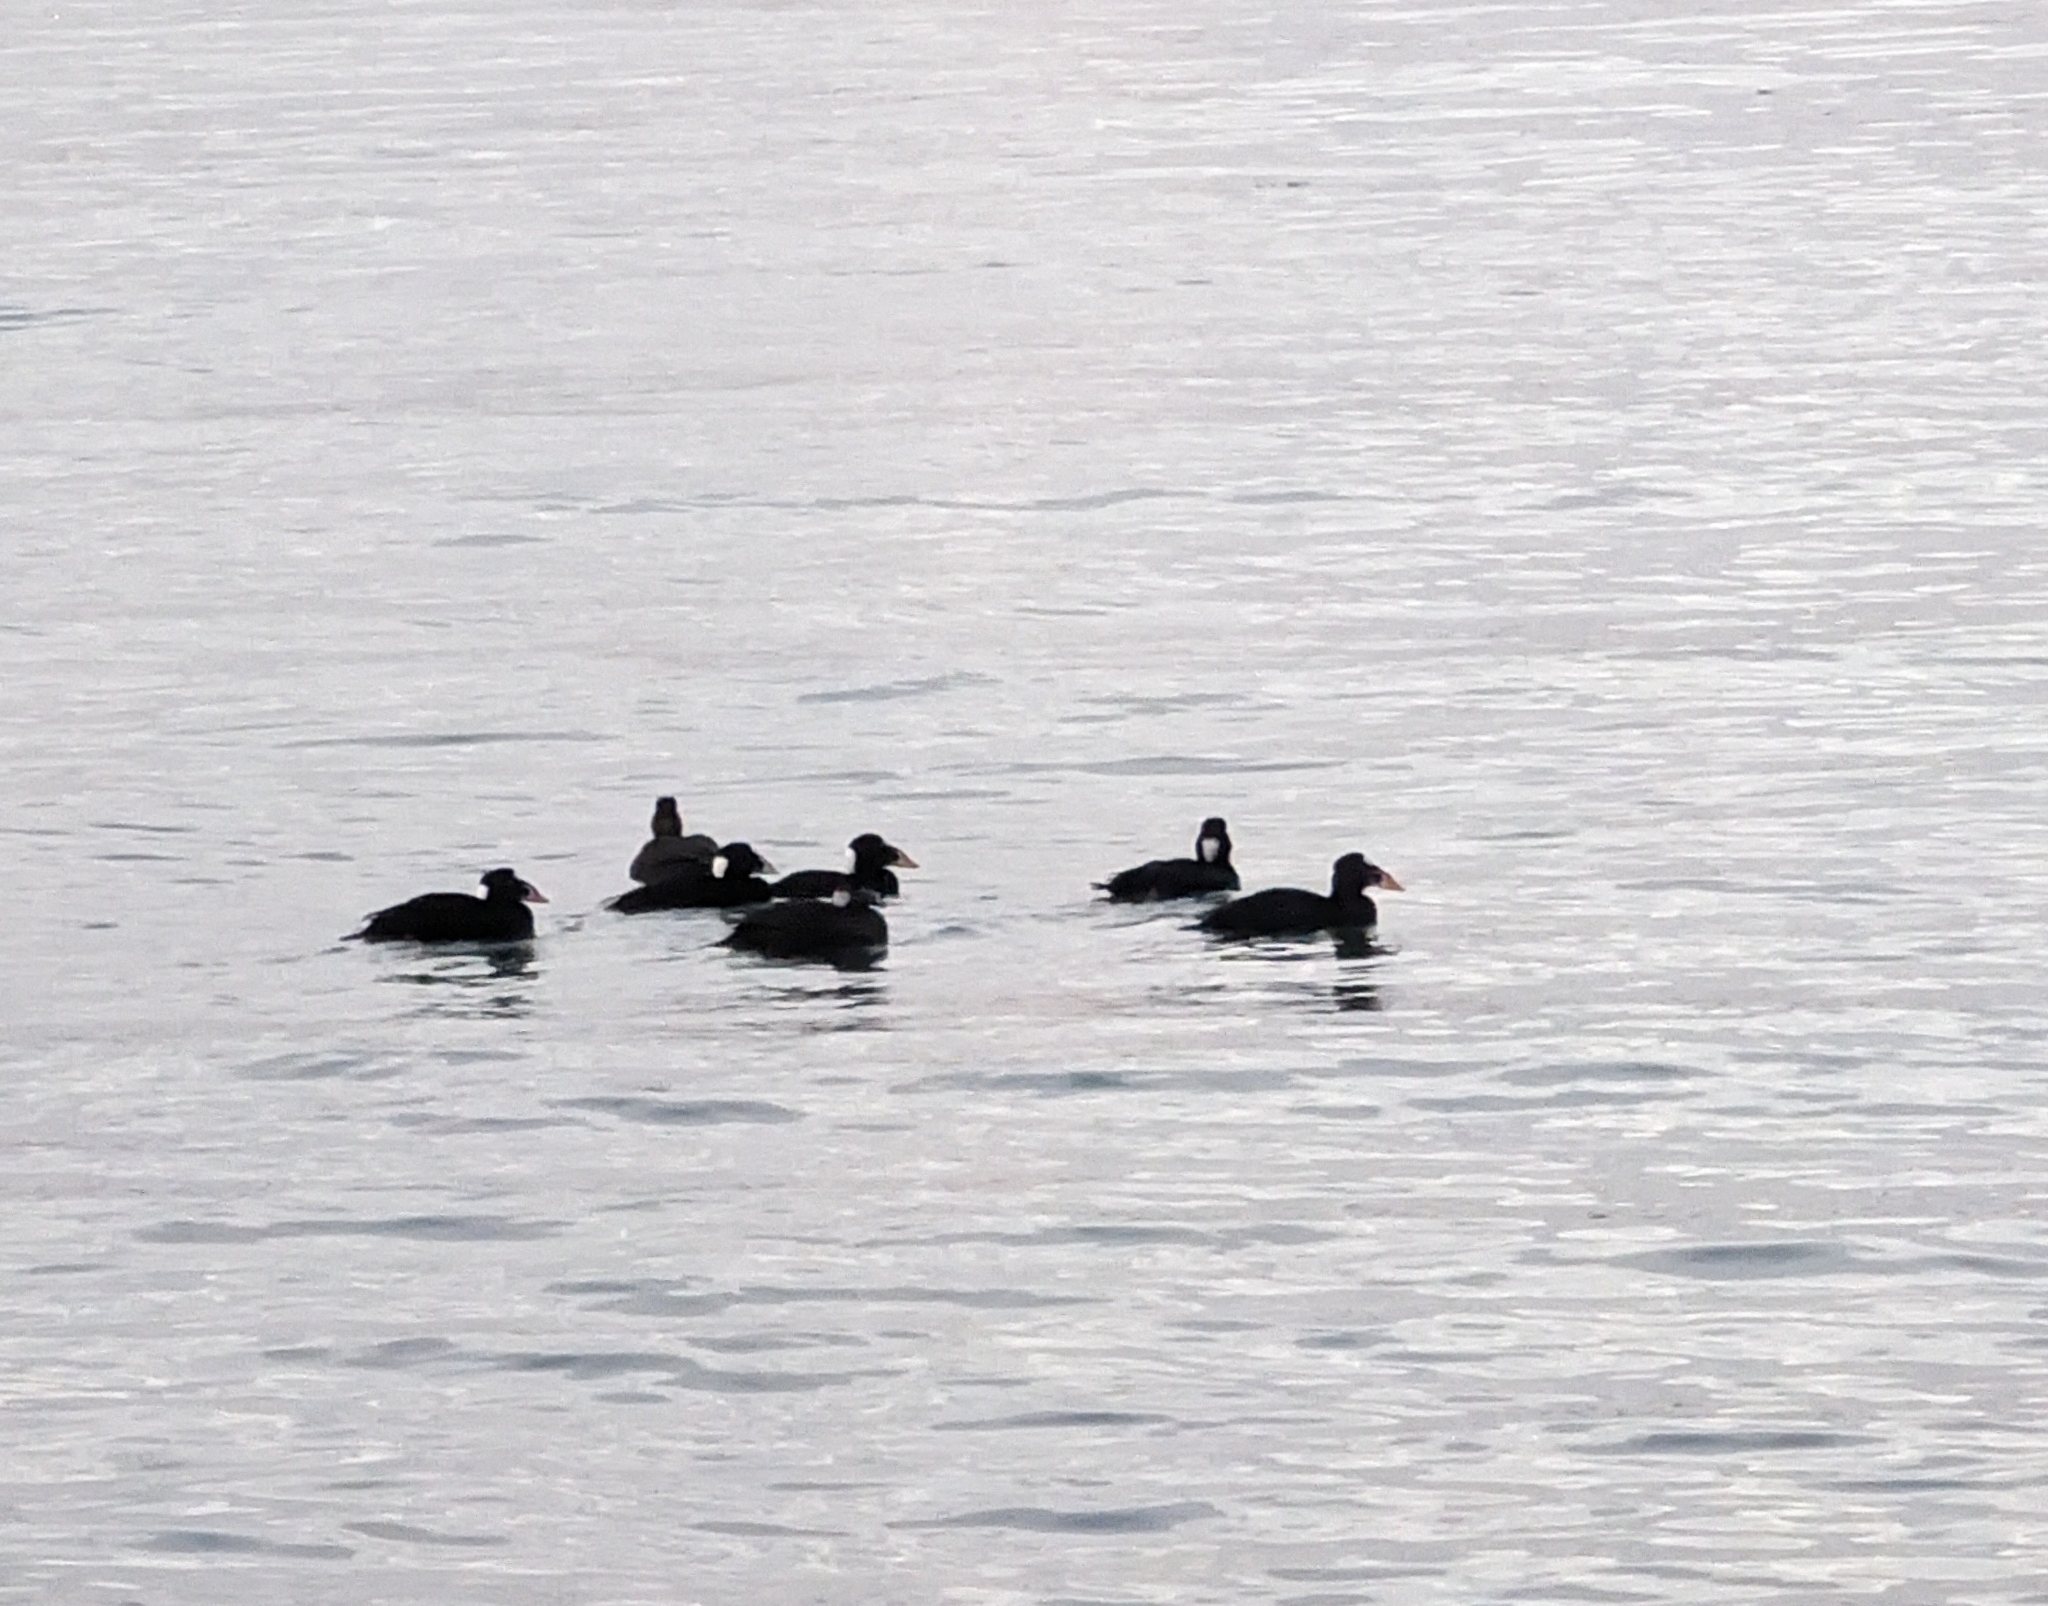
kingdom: Animalia
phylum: Chordata
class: Aves
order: Anseriformes
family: Anatidae
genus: Melanitta
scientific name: Melanitta perspicillata
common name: Surf scoter
